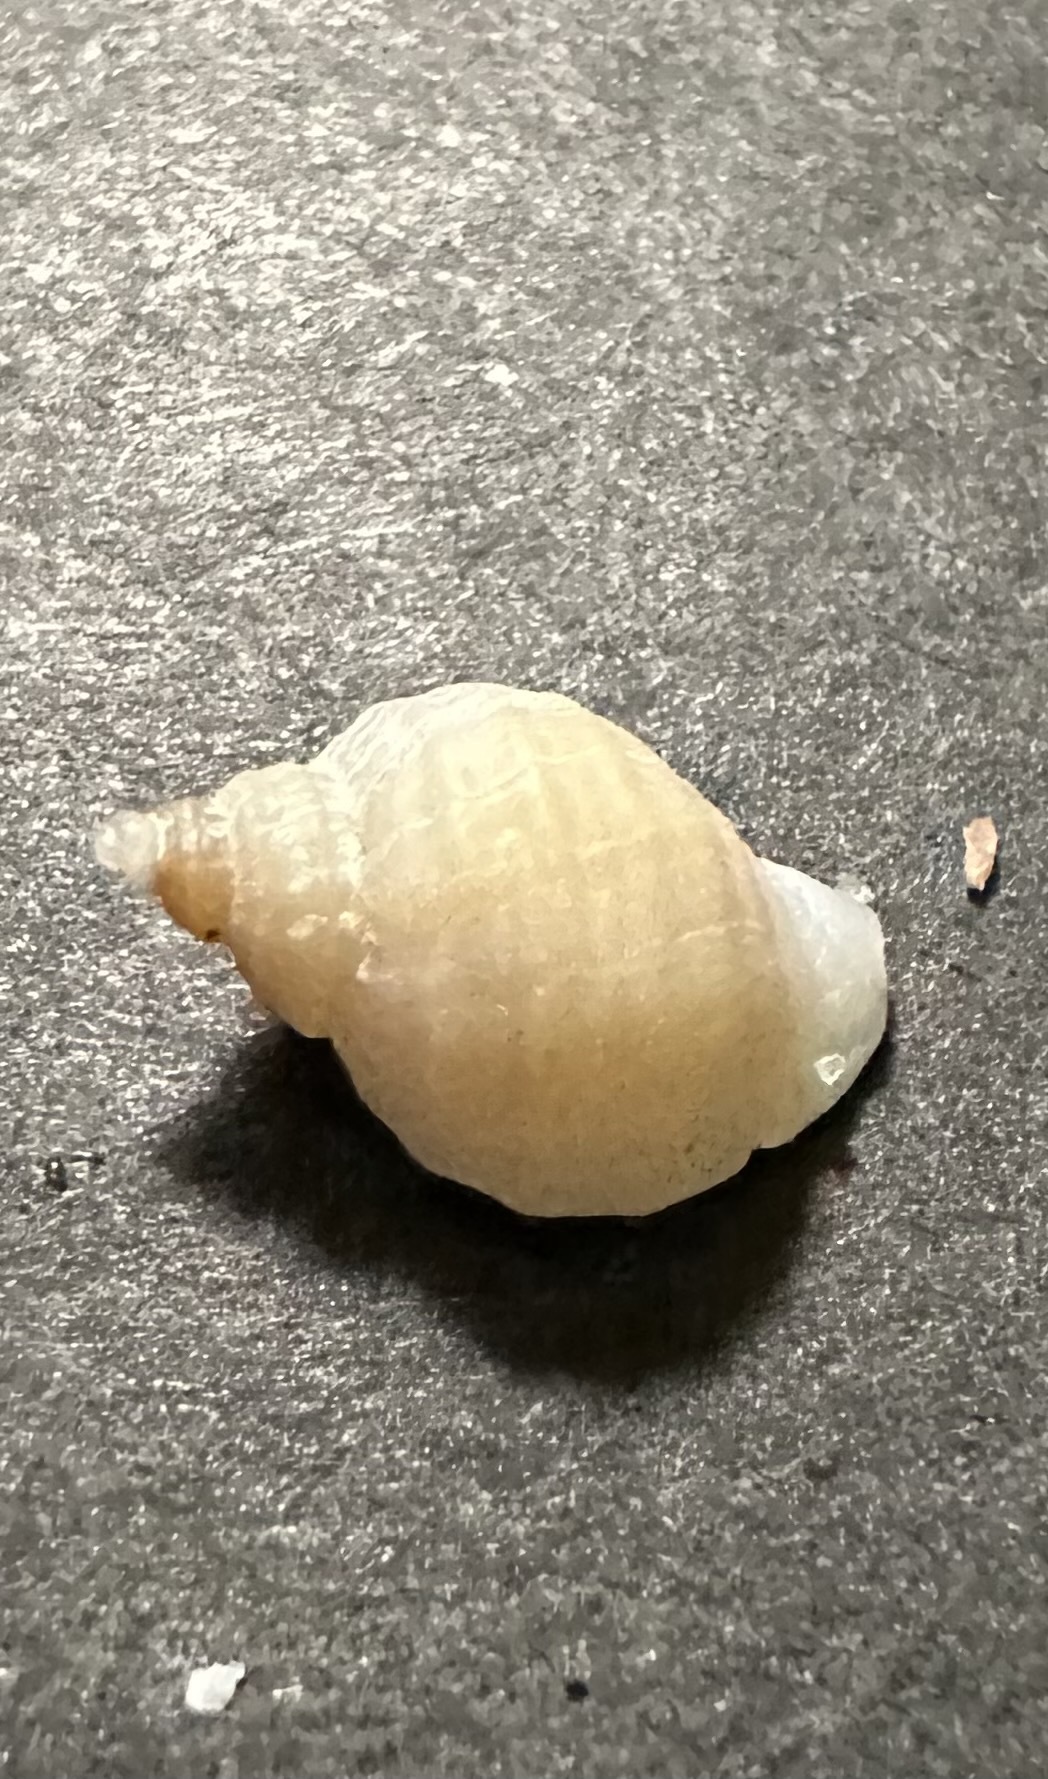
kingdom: Animalia
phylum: Mollusca
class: Gastropoda
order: Neogastropoda
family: Muricidae
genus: Nucella
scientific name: Nucella lapillus
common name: Dog whelk
